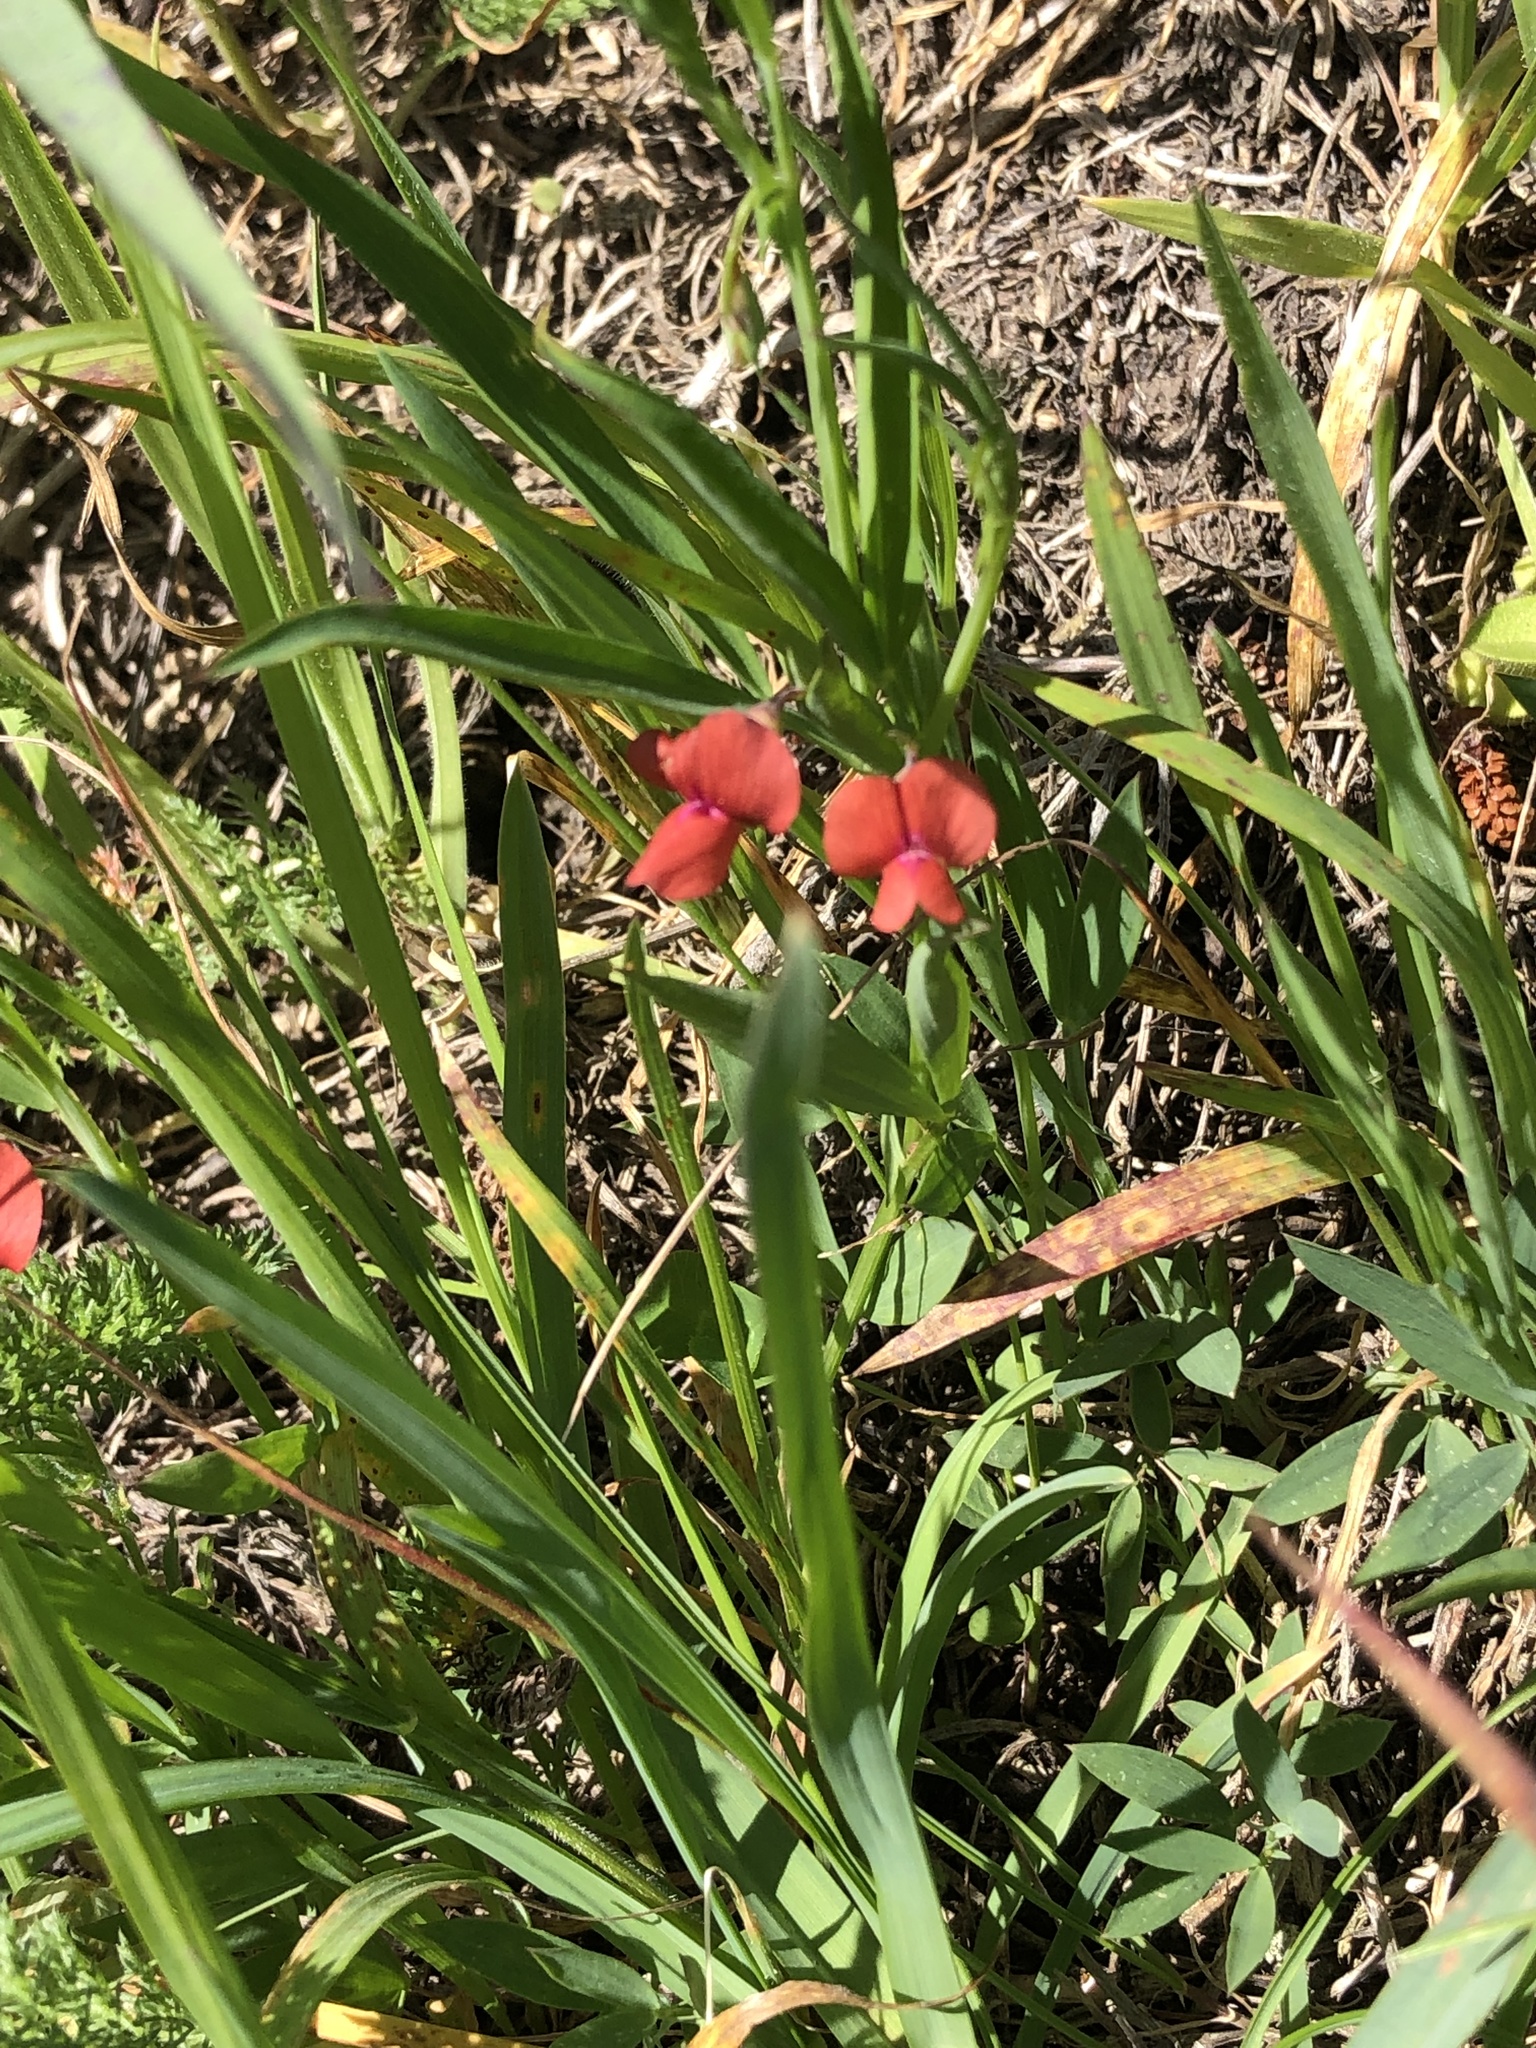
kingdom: Plantae
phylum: Tracheophyta
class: Magnoliopsida
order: Fabales
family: Fabaceae
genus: Lathyrus
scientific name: Lathyrus sphaericus
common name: Grass pea
